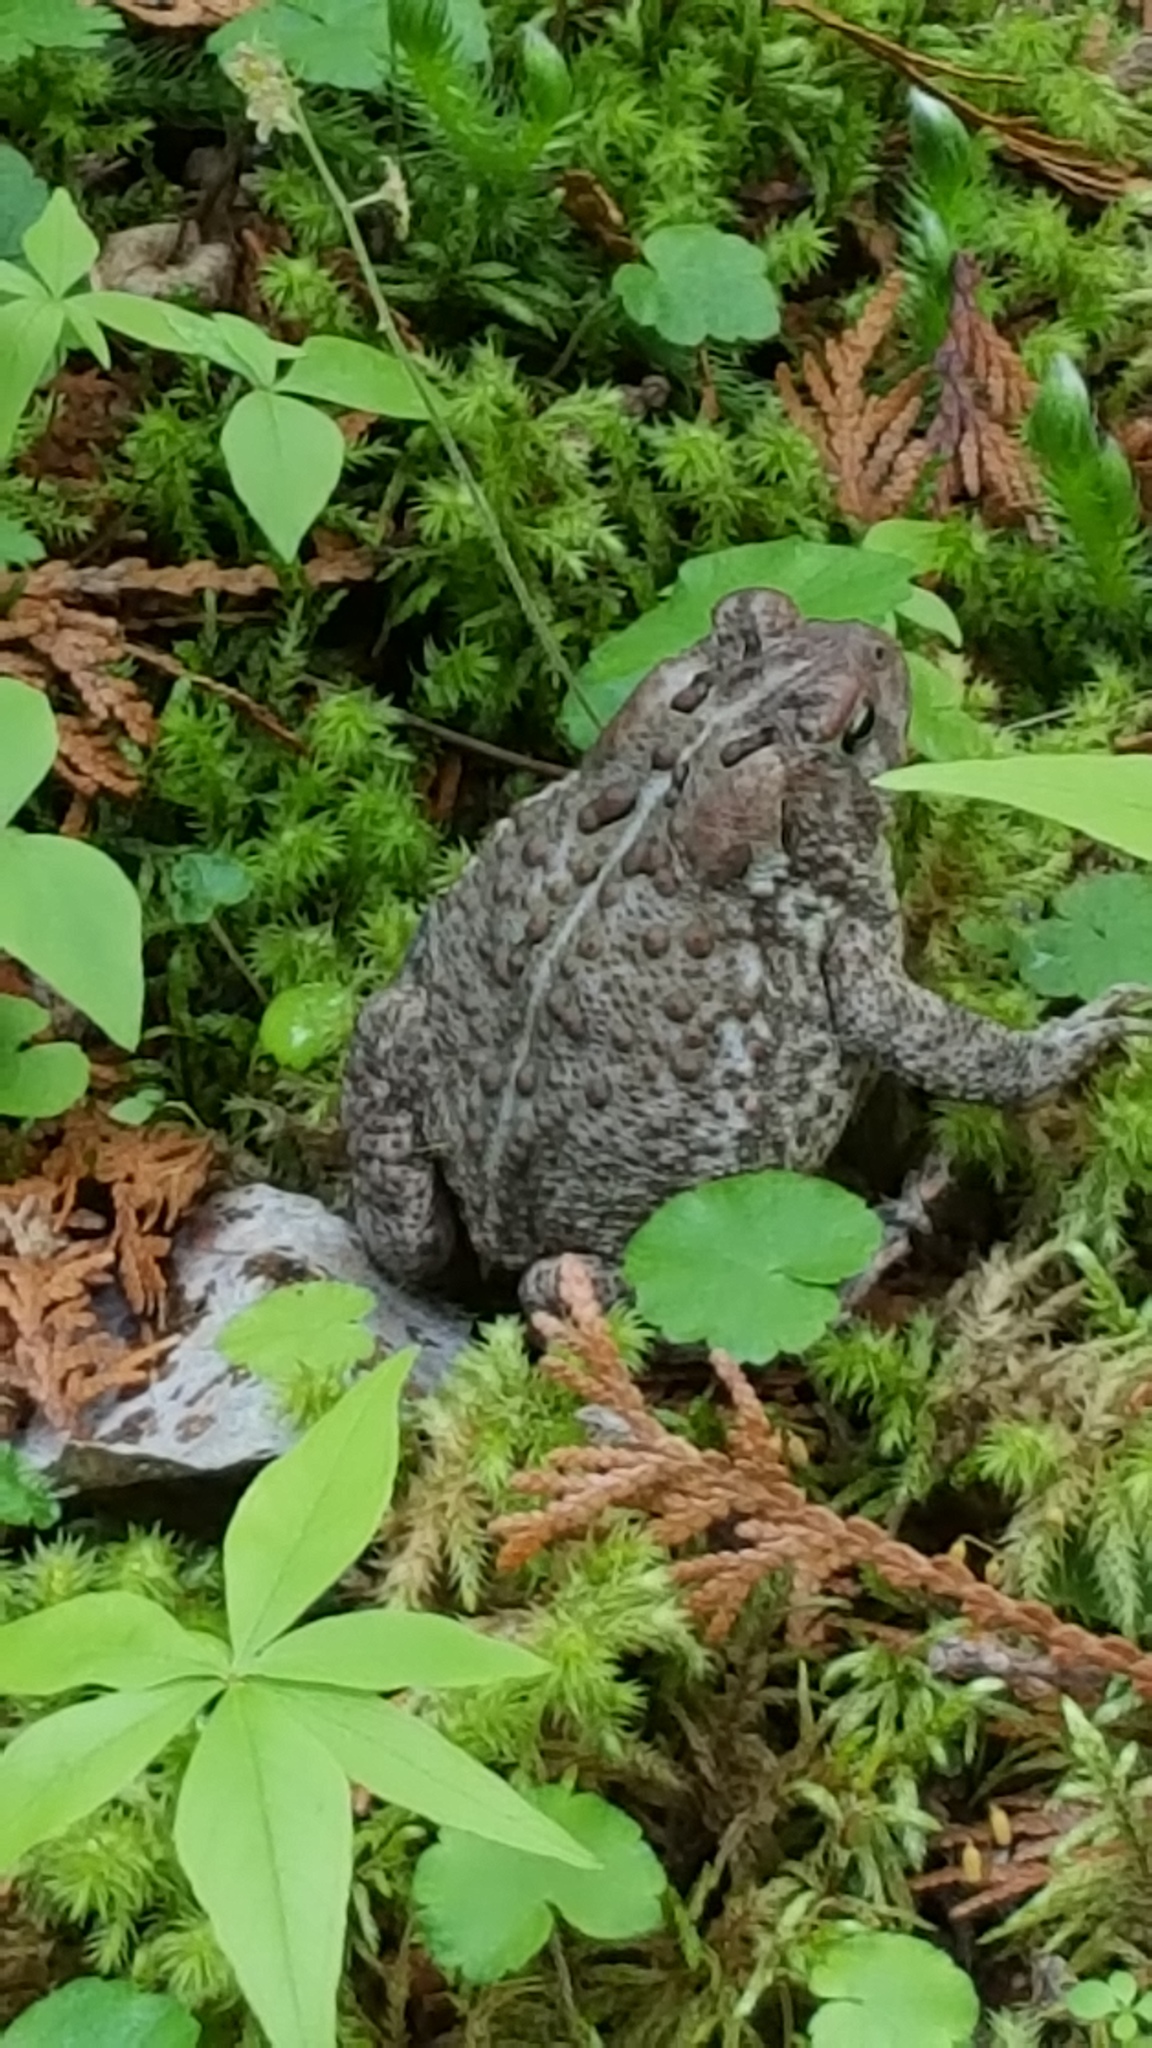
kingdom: Animalia
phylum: Chordata
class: Amphibia
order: Anura
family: Bufonidae
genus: Anaxyrus
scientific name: Anaxyrus americanus
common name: American toad
